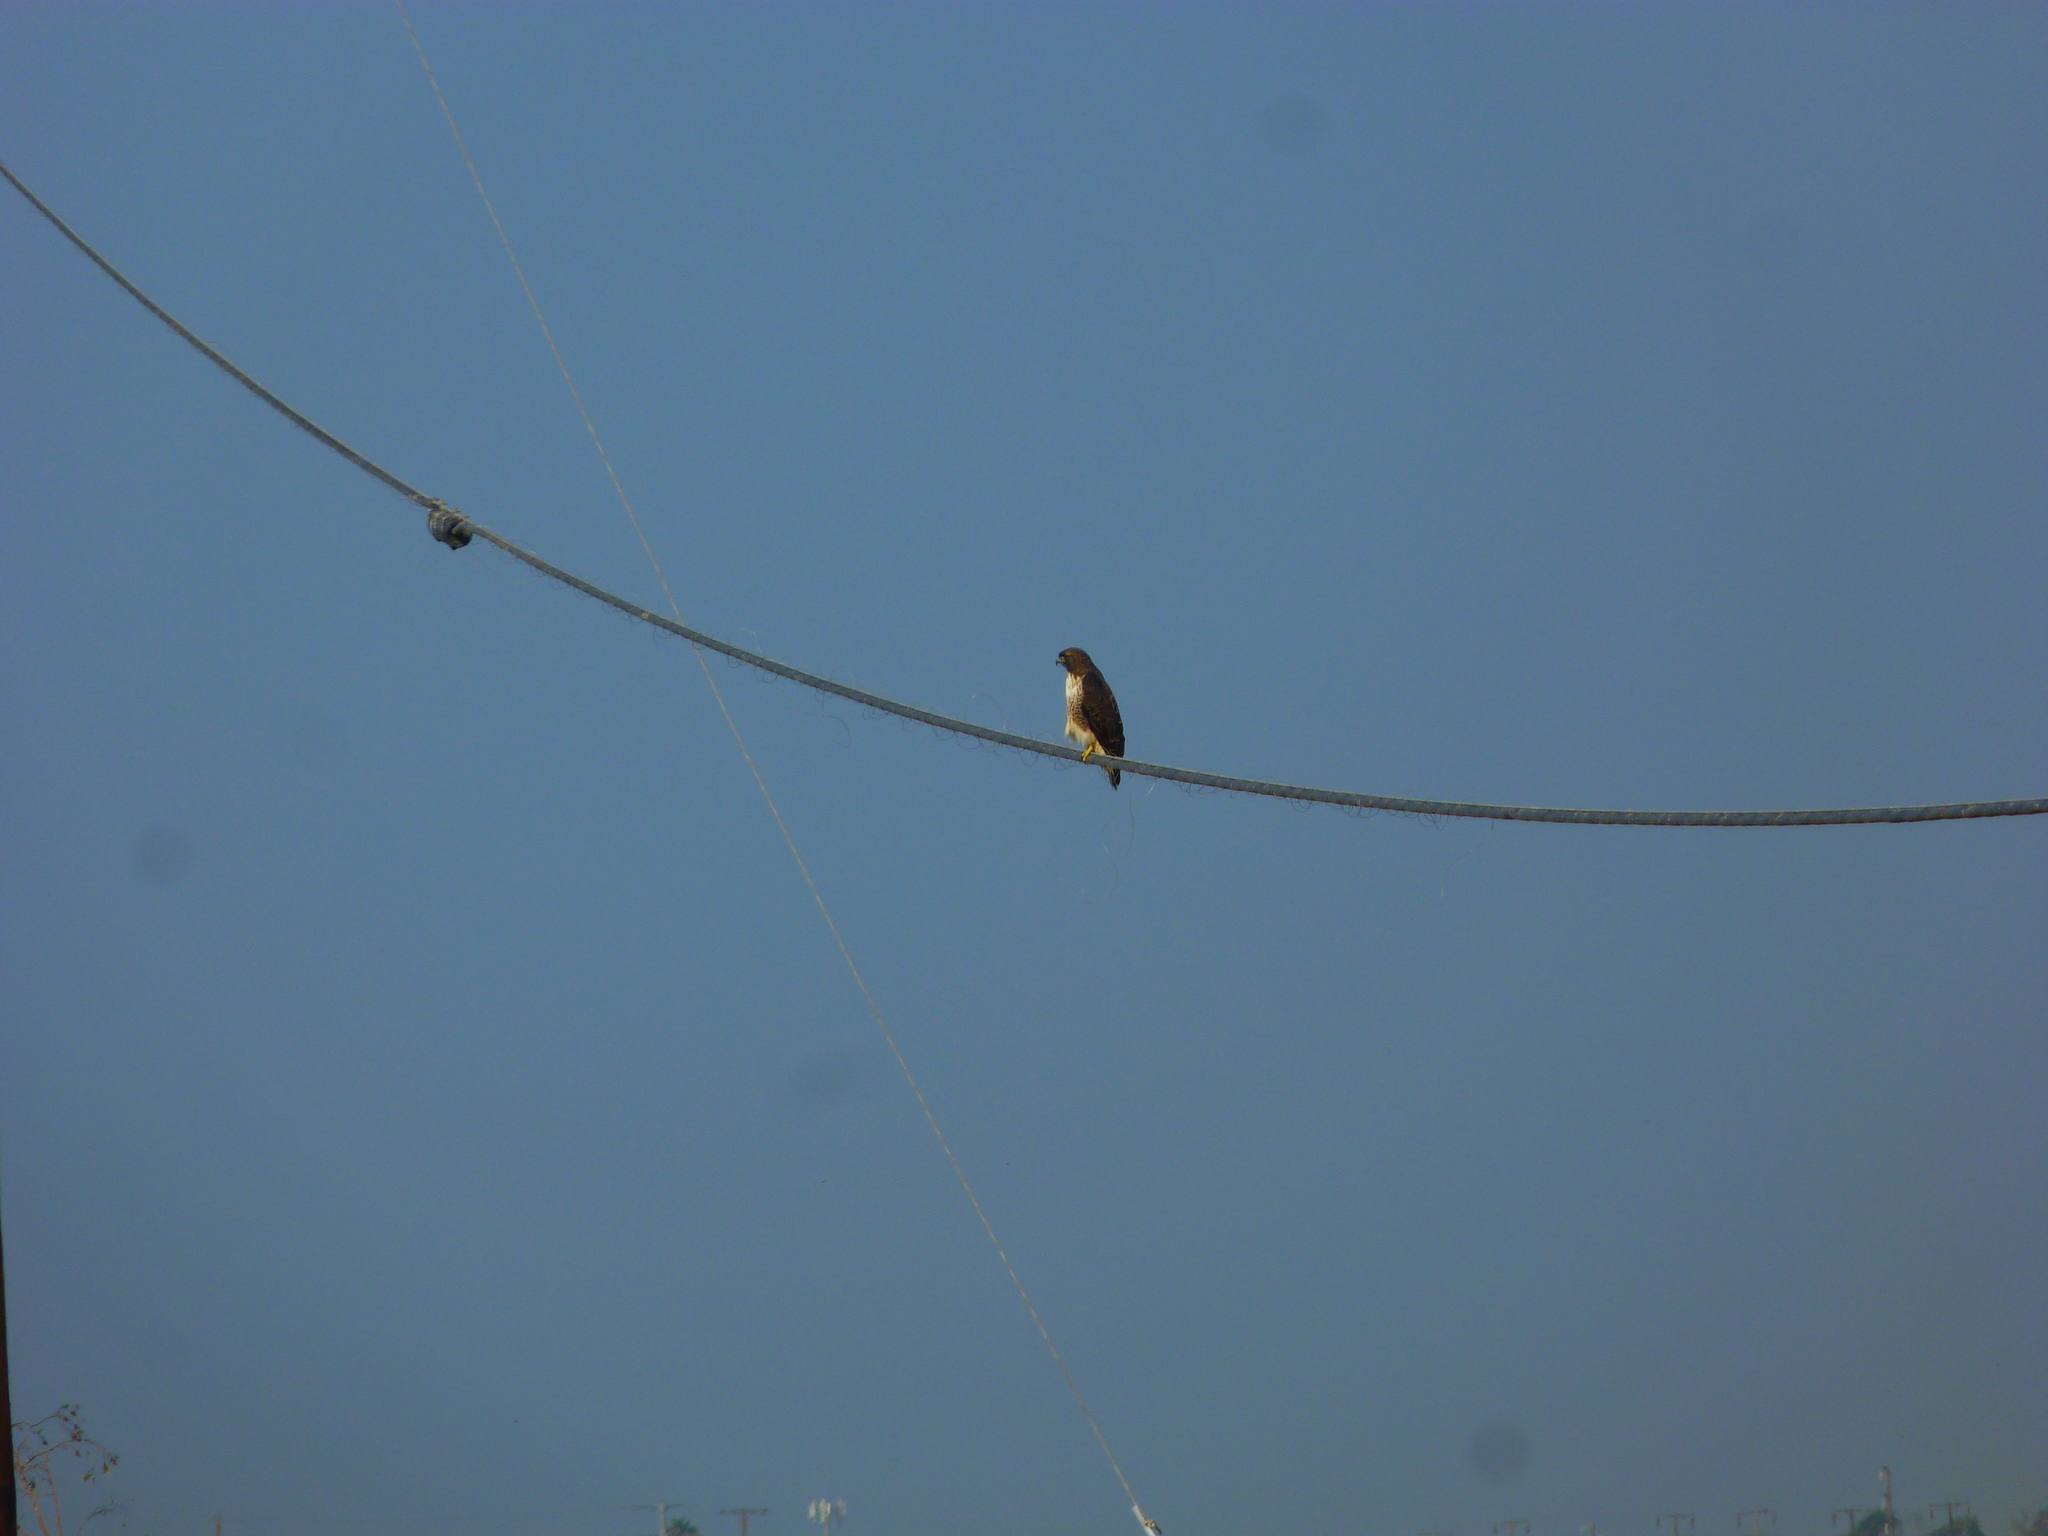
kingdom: Animalia
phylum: Chordata
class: Aves
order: Accipitriformes
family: Accipitridae
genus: Buteo
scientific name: Buteo jamaicensis
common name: Red-tailed hawk
